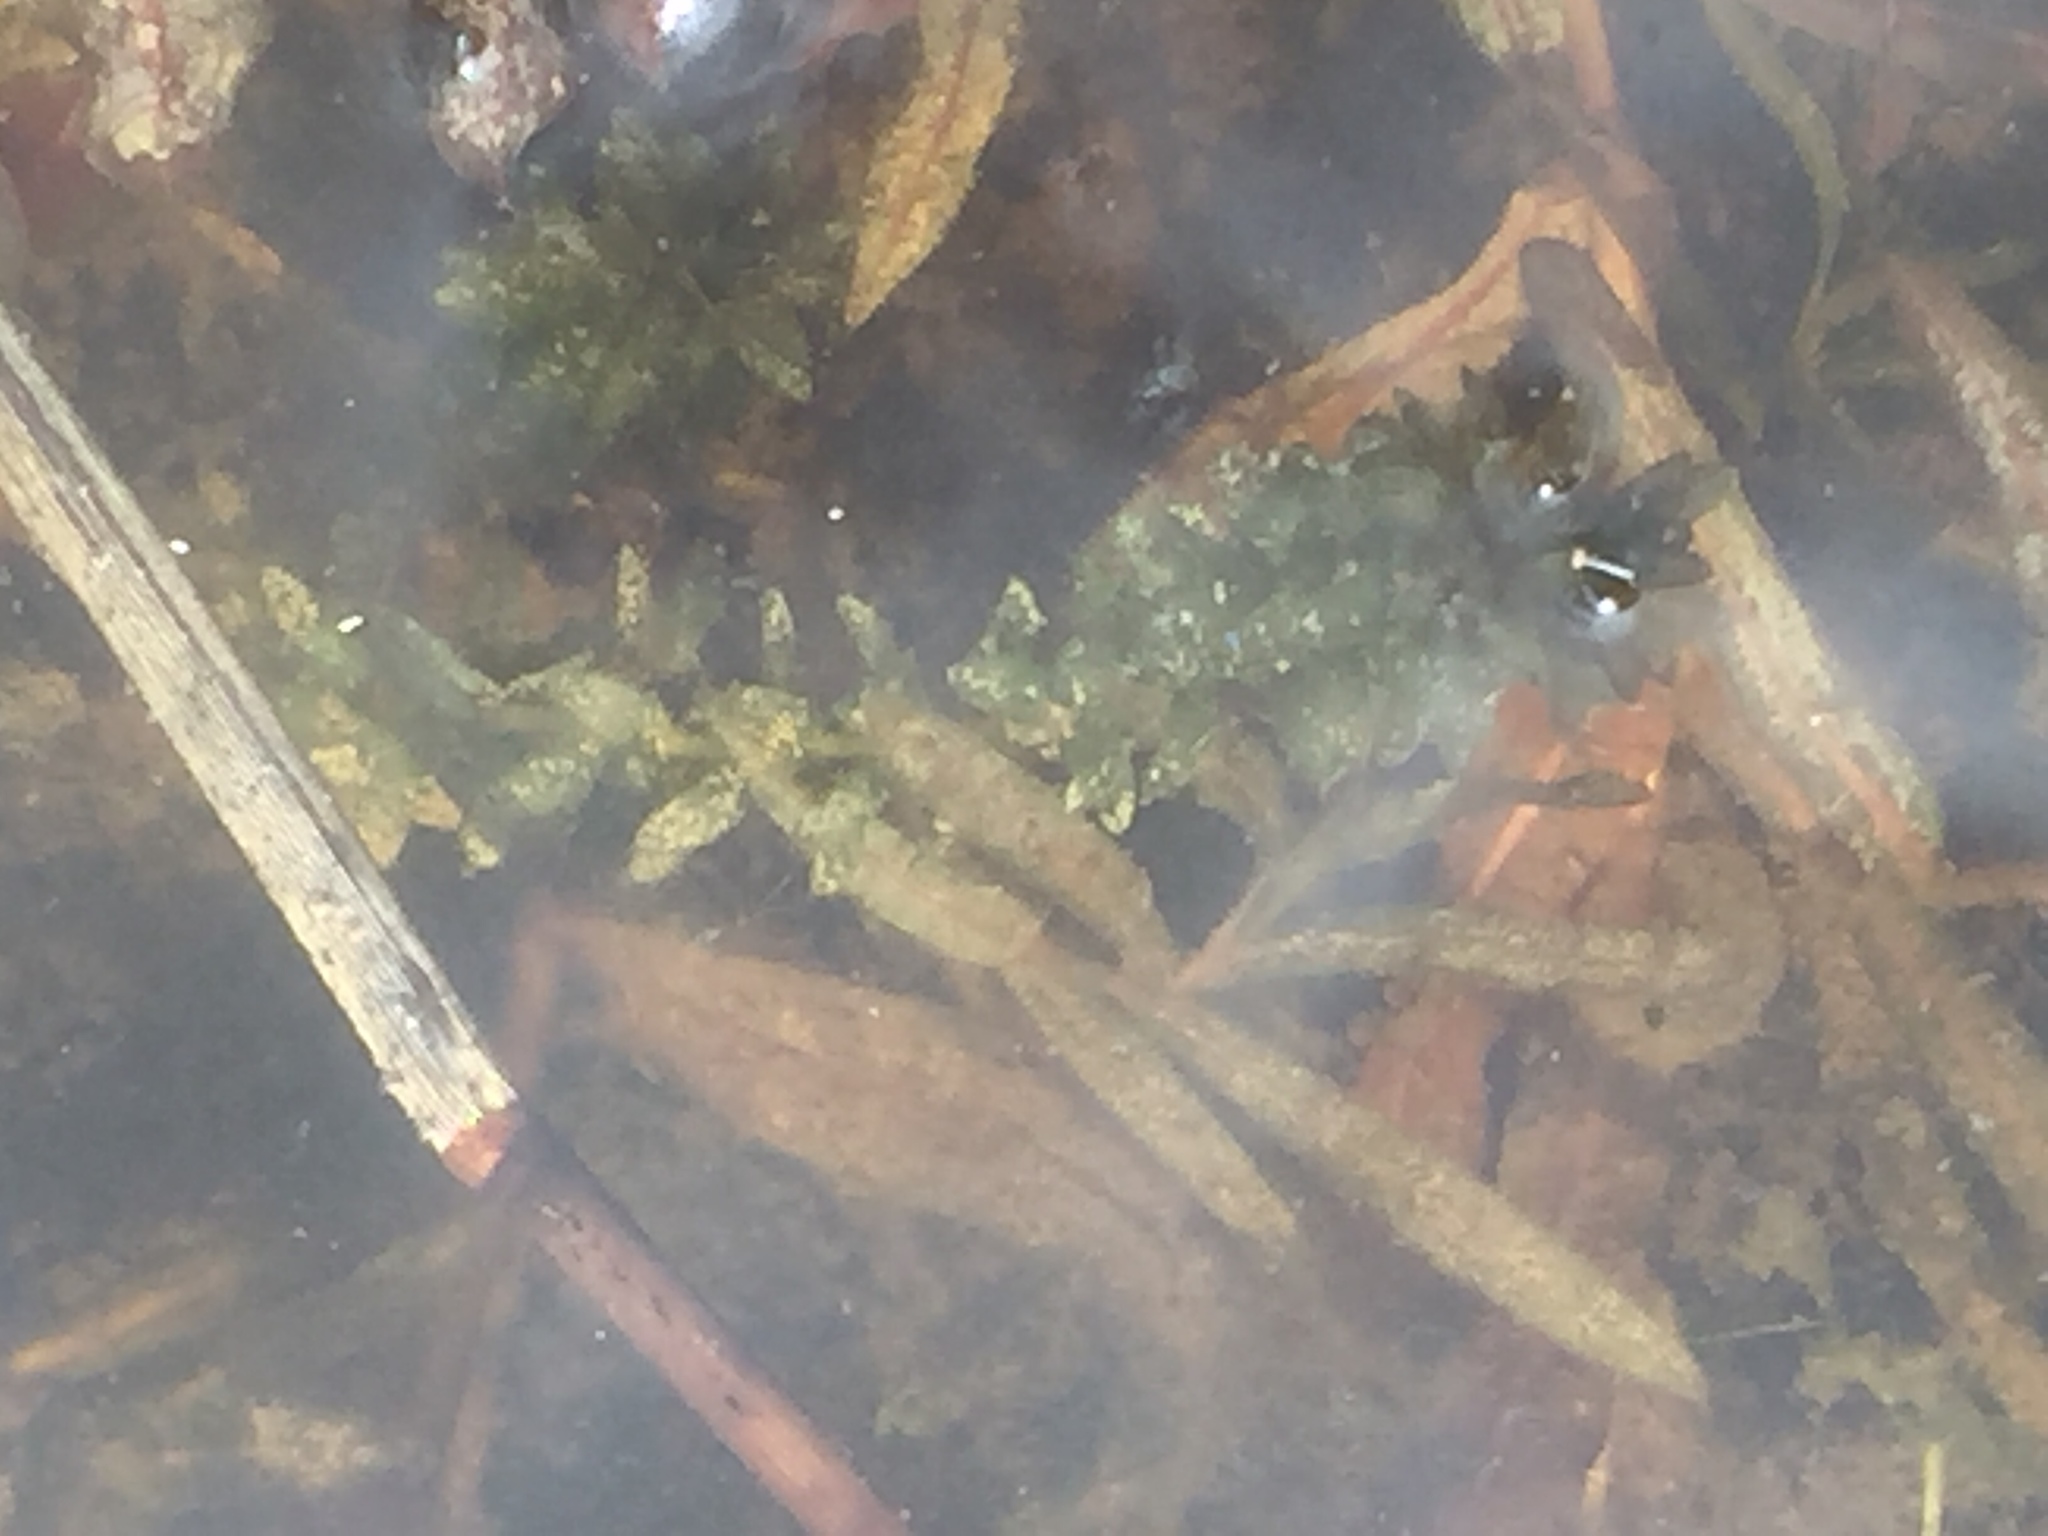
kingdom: Plantae
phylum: Tracheophyta
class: Liliopsida
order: Alismatales
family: Hydrocharitaceae
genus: Elodea
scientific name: Elodea canadensis
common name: Canadian waterweed
